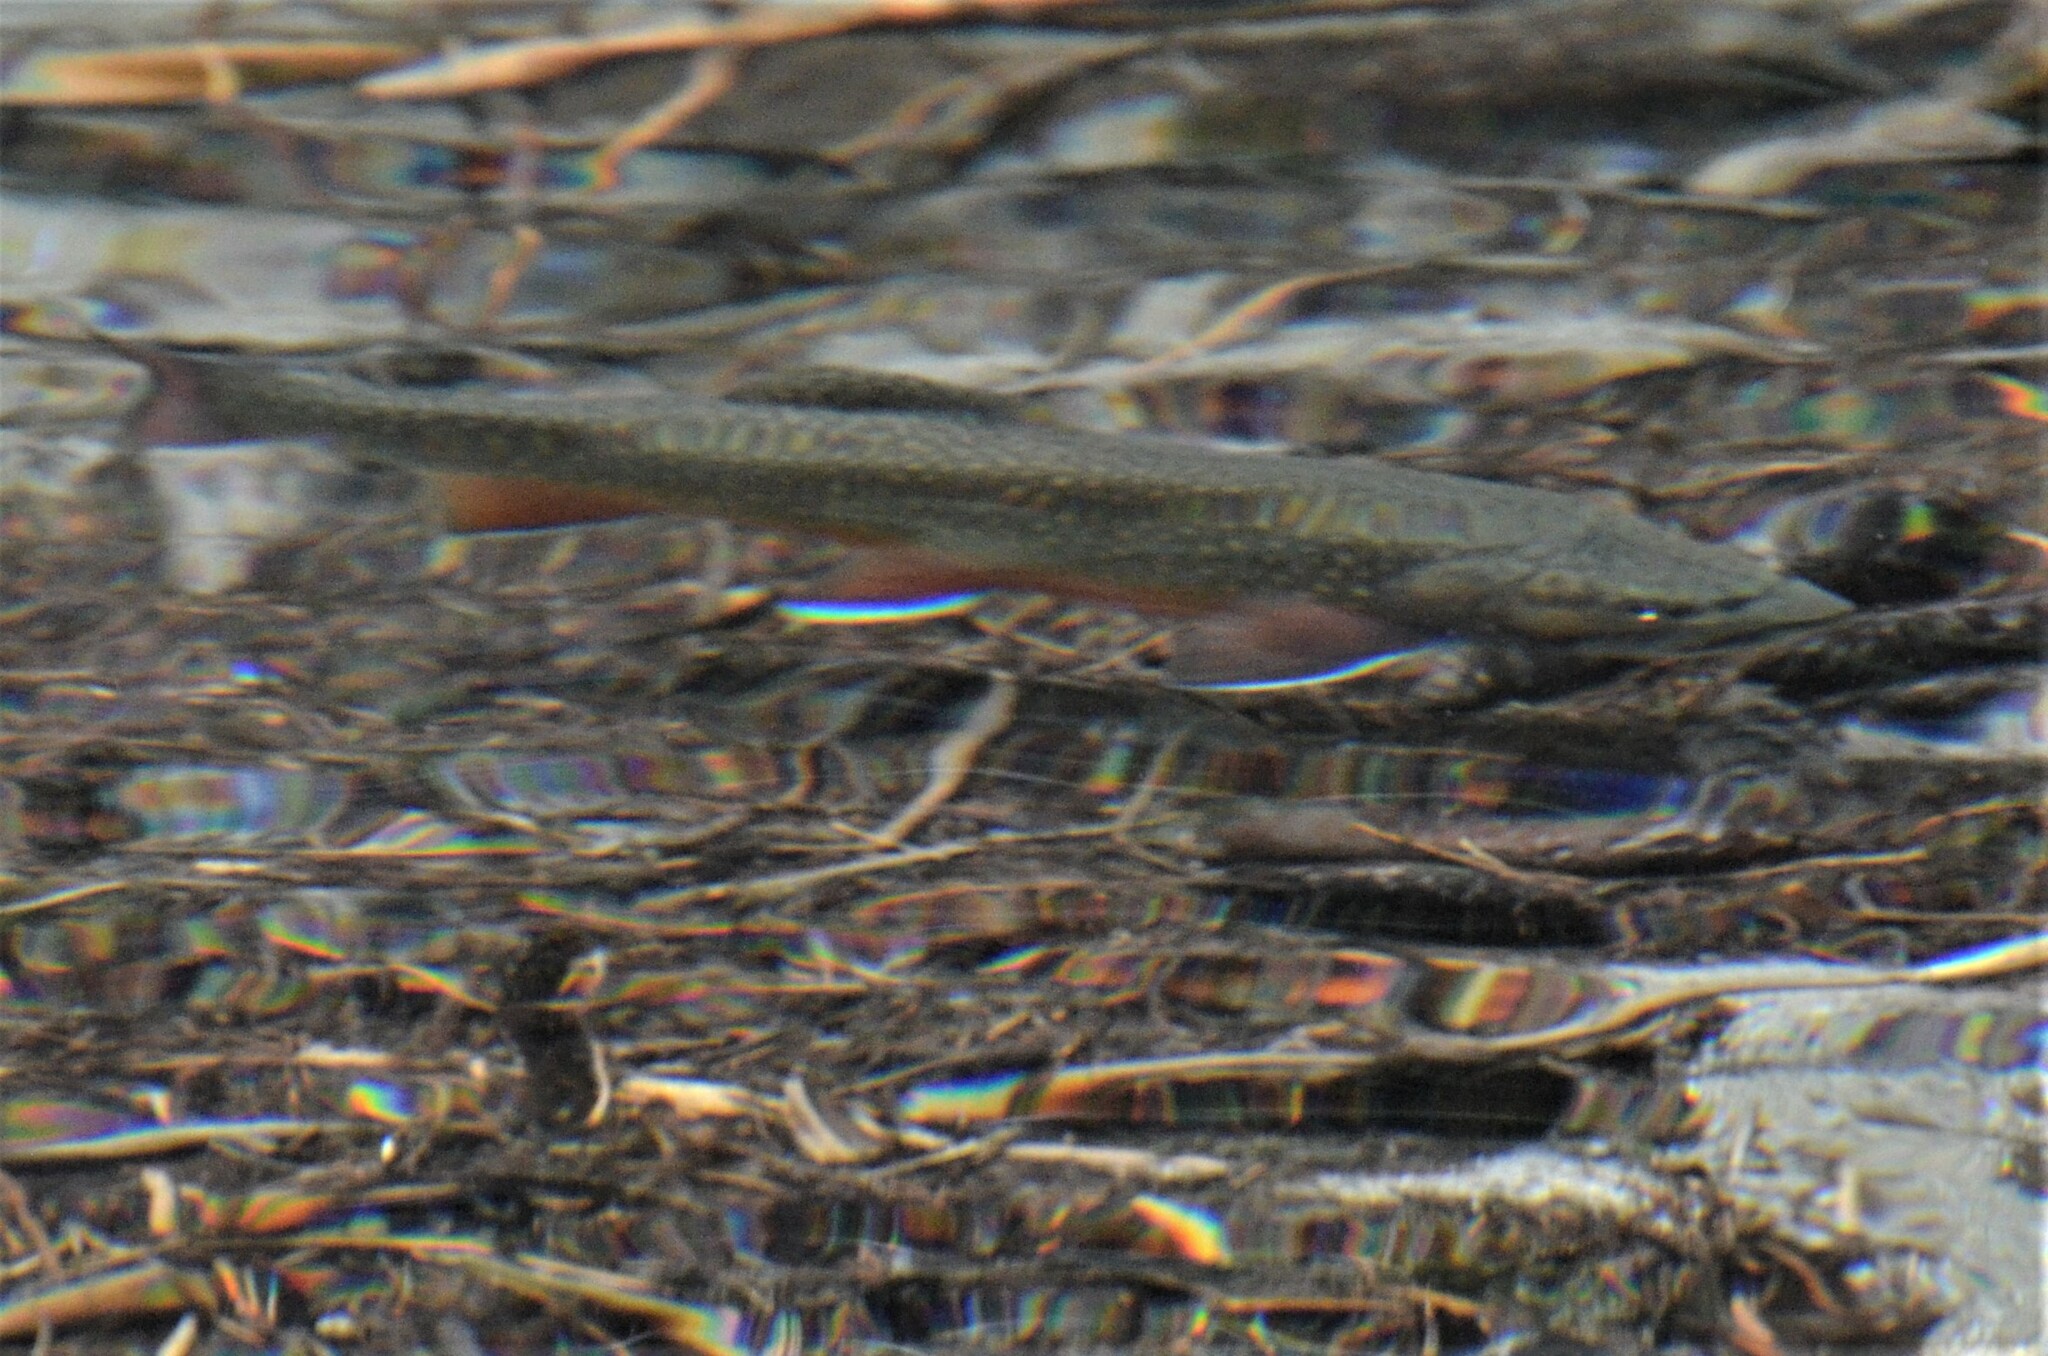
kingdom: Animalia
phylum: Chordata
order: Salmoniformes
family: Salmonidae
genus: Salvelinus
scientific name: Salvelinus fontinalis
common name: Brook trout
